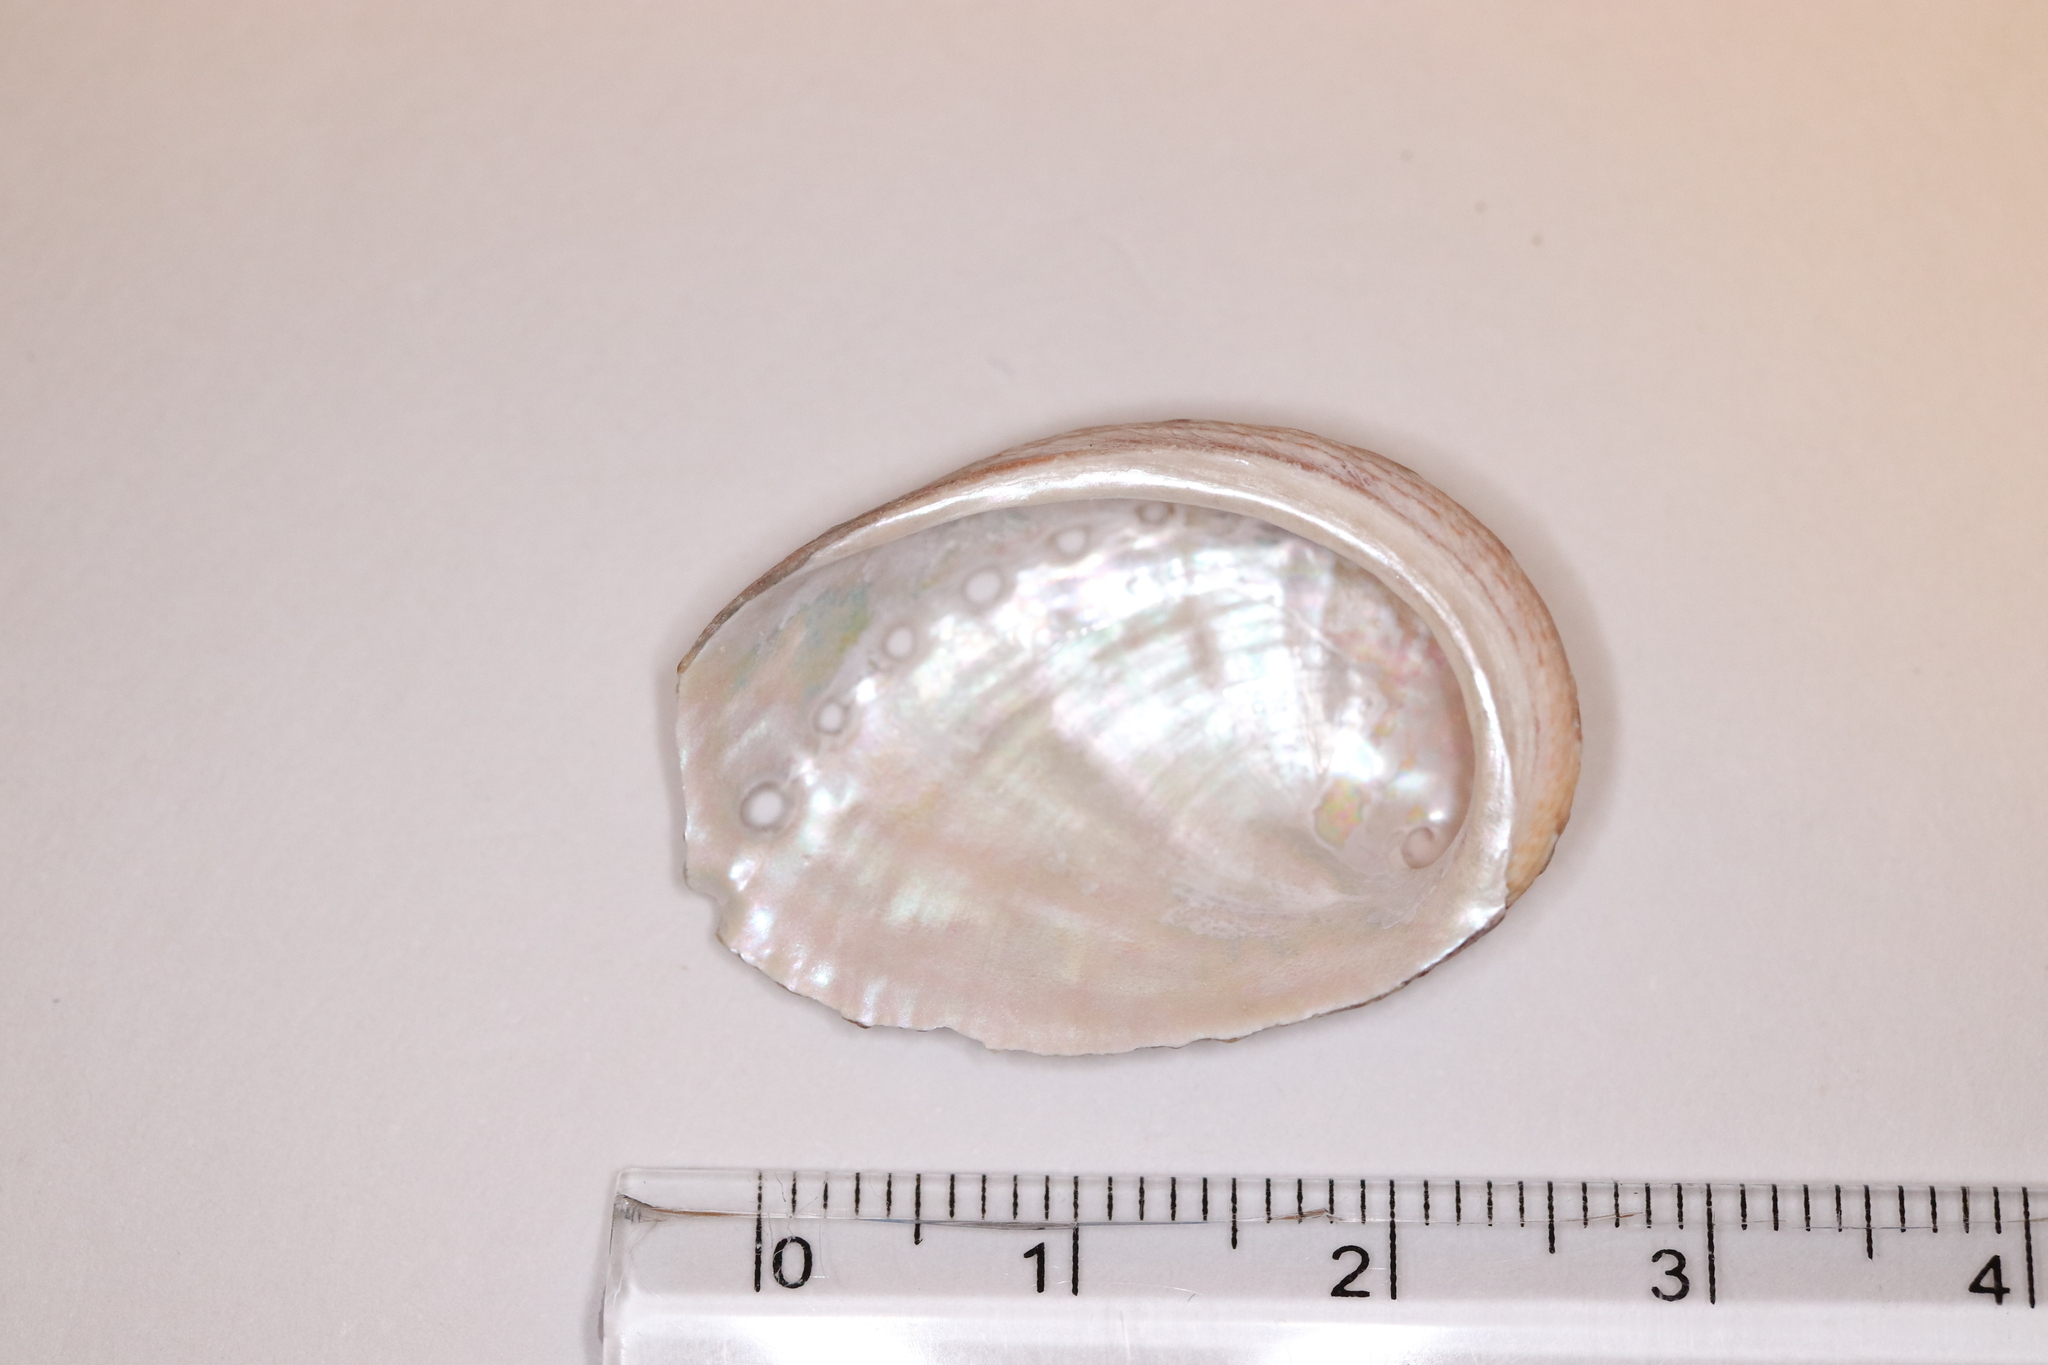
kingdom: Animalia
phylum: Mollusca
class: Gastropoda
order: Lepetellida
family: Haliotidae
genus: Haliotis
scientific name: Haliotis diversicolor
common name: Multicolored abalone
